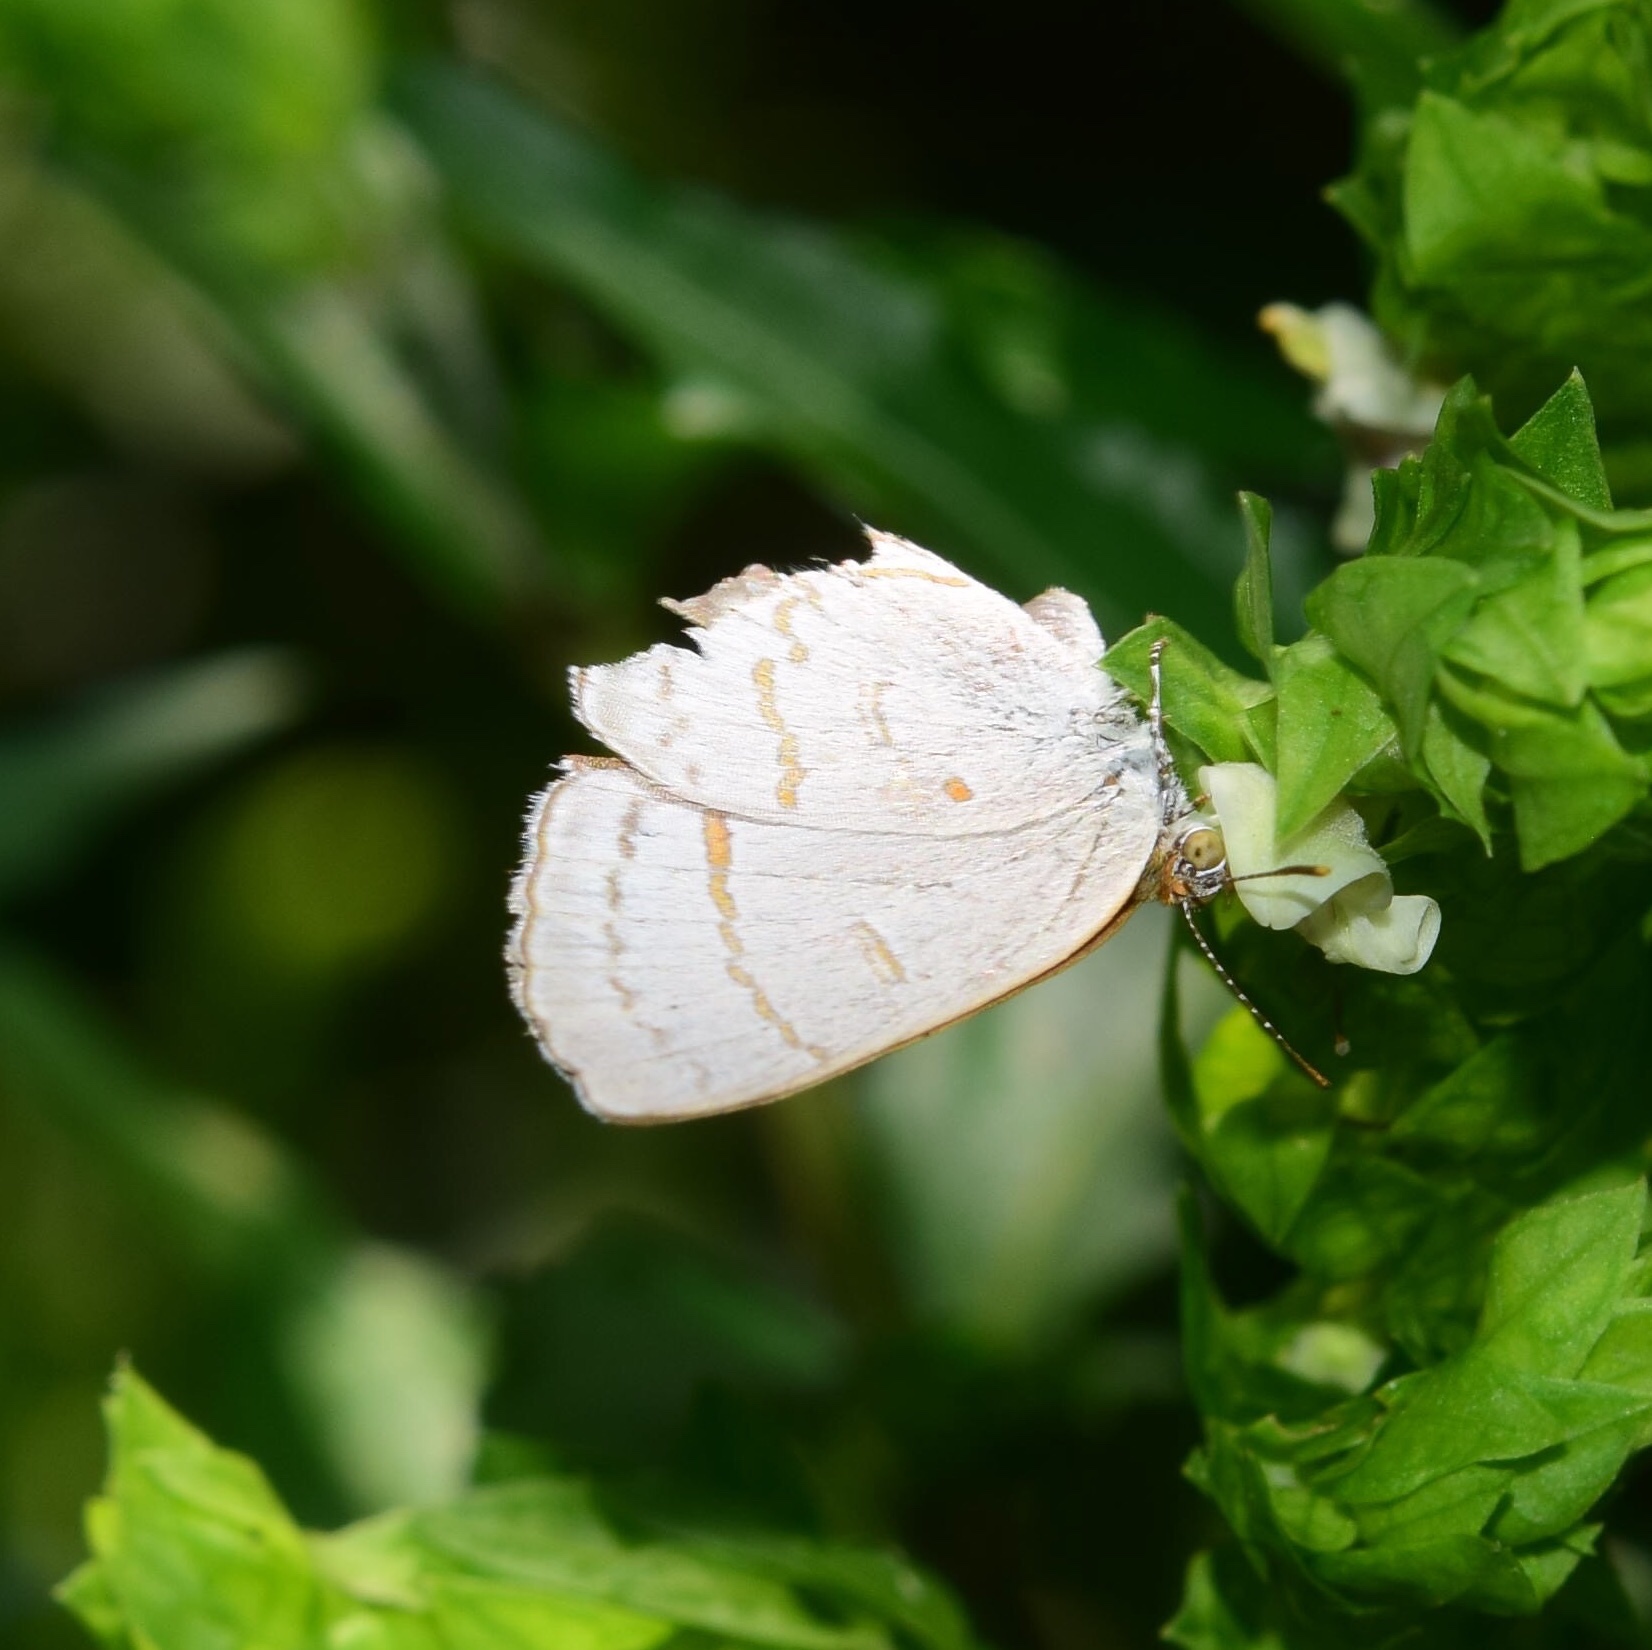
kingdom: Animalia
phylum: Arthropoda
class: Insecta
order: Lepidoptera
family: Lycaenidae
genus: Hypolycaena
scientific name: Hypolycaena philippus
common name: Common hairstreak
